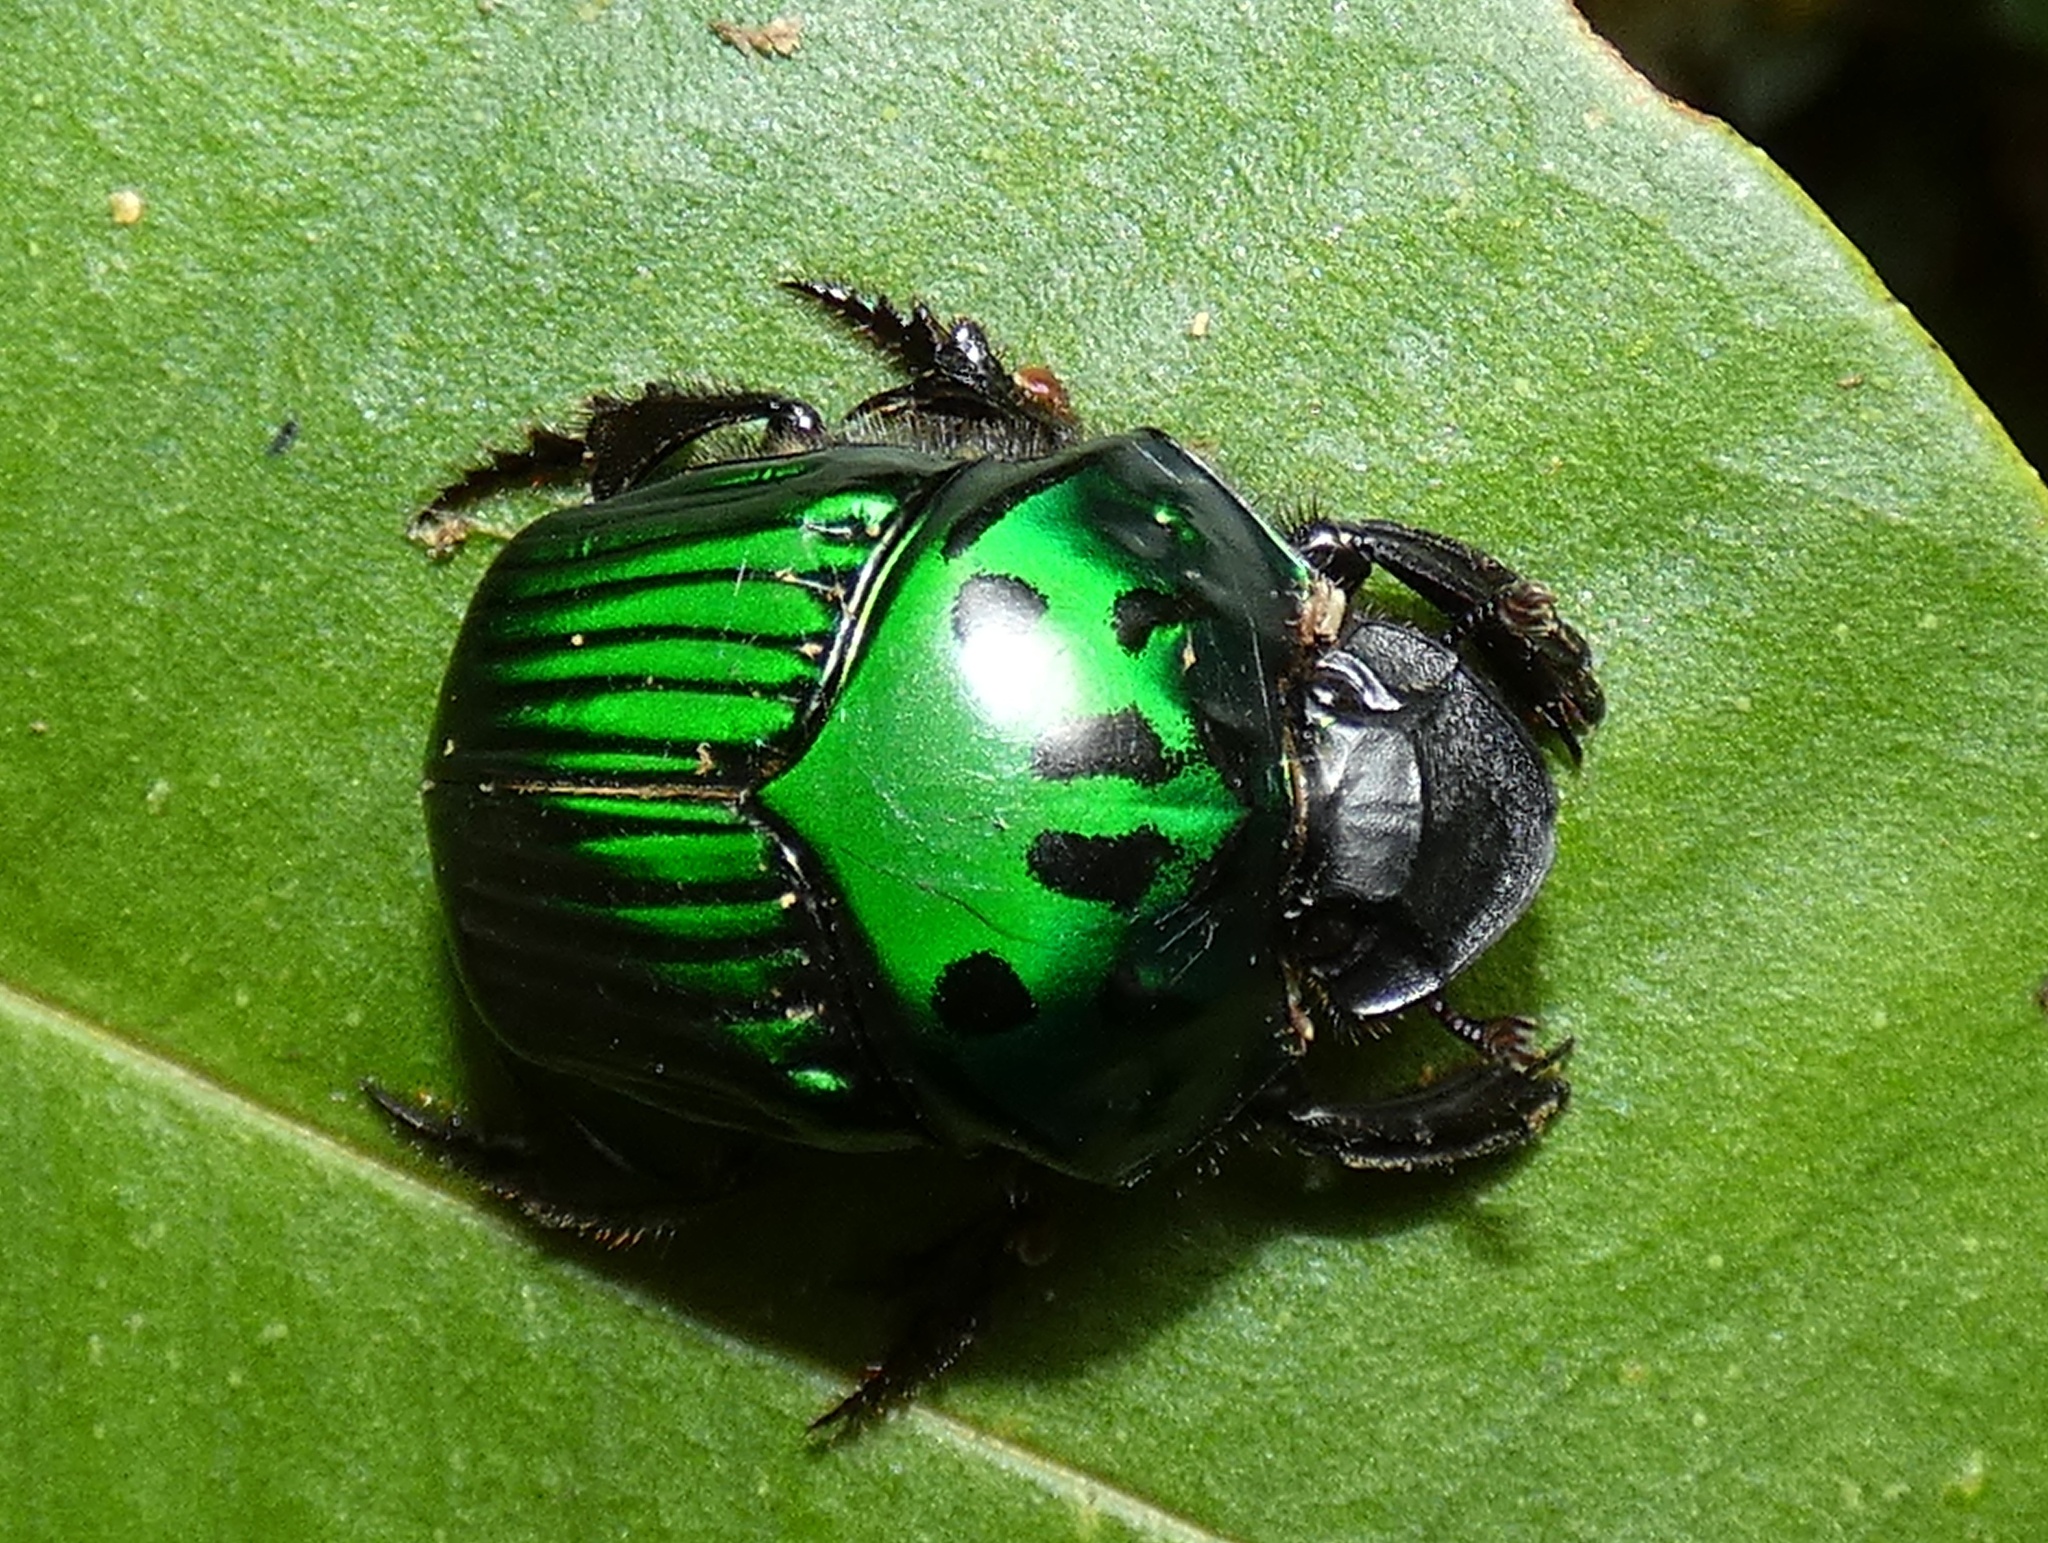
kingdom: Animalia
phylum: Arthropoda
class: Insecta
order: Coleoptera
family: Scarabaeidae
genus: Oxysternon
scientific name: Oxysternon conspicillatum
